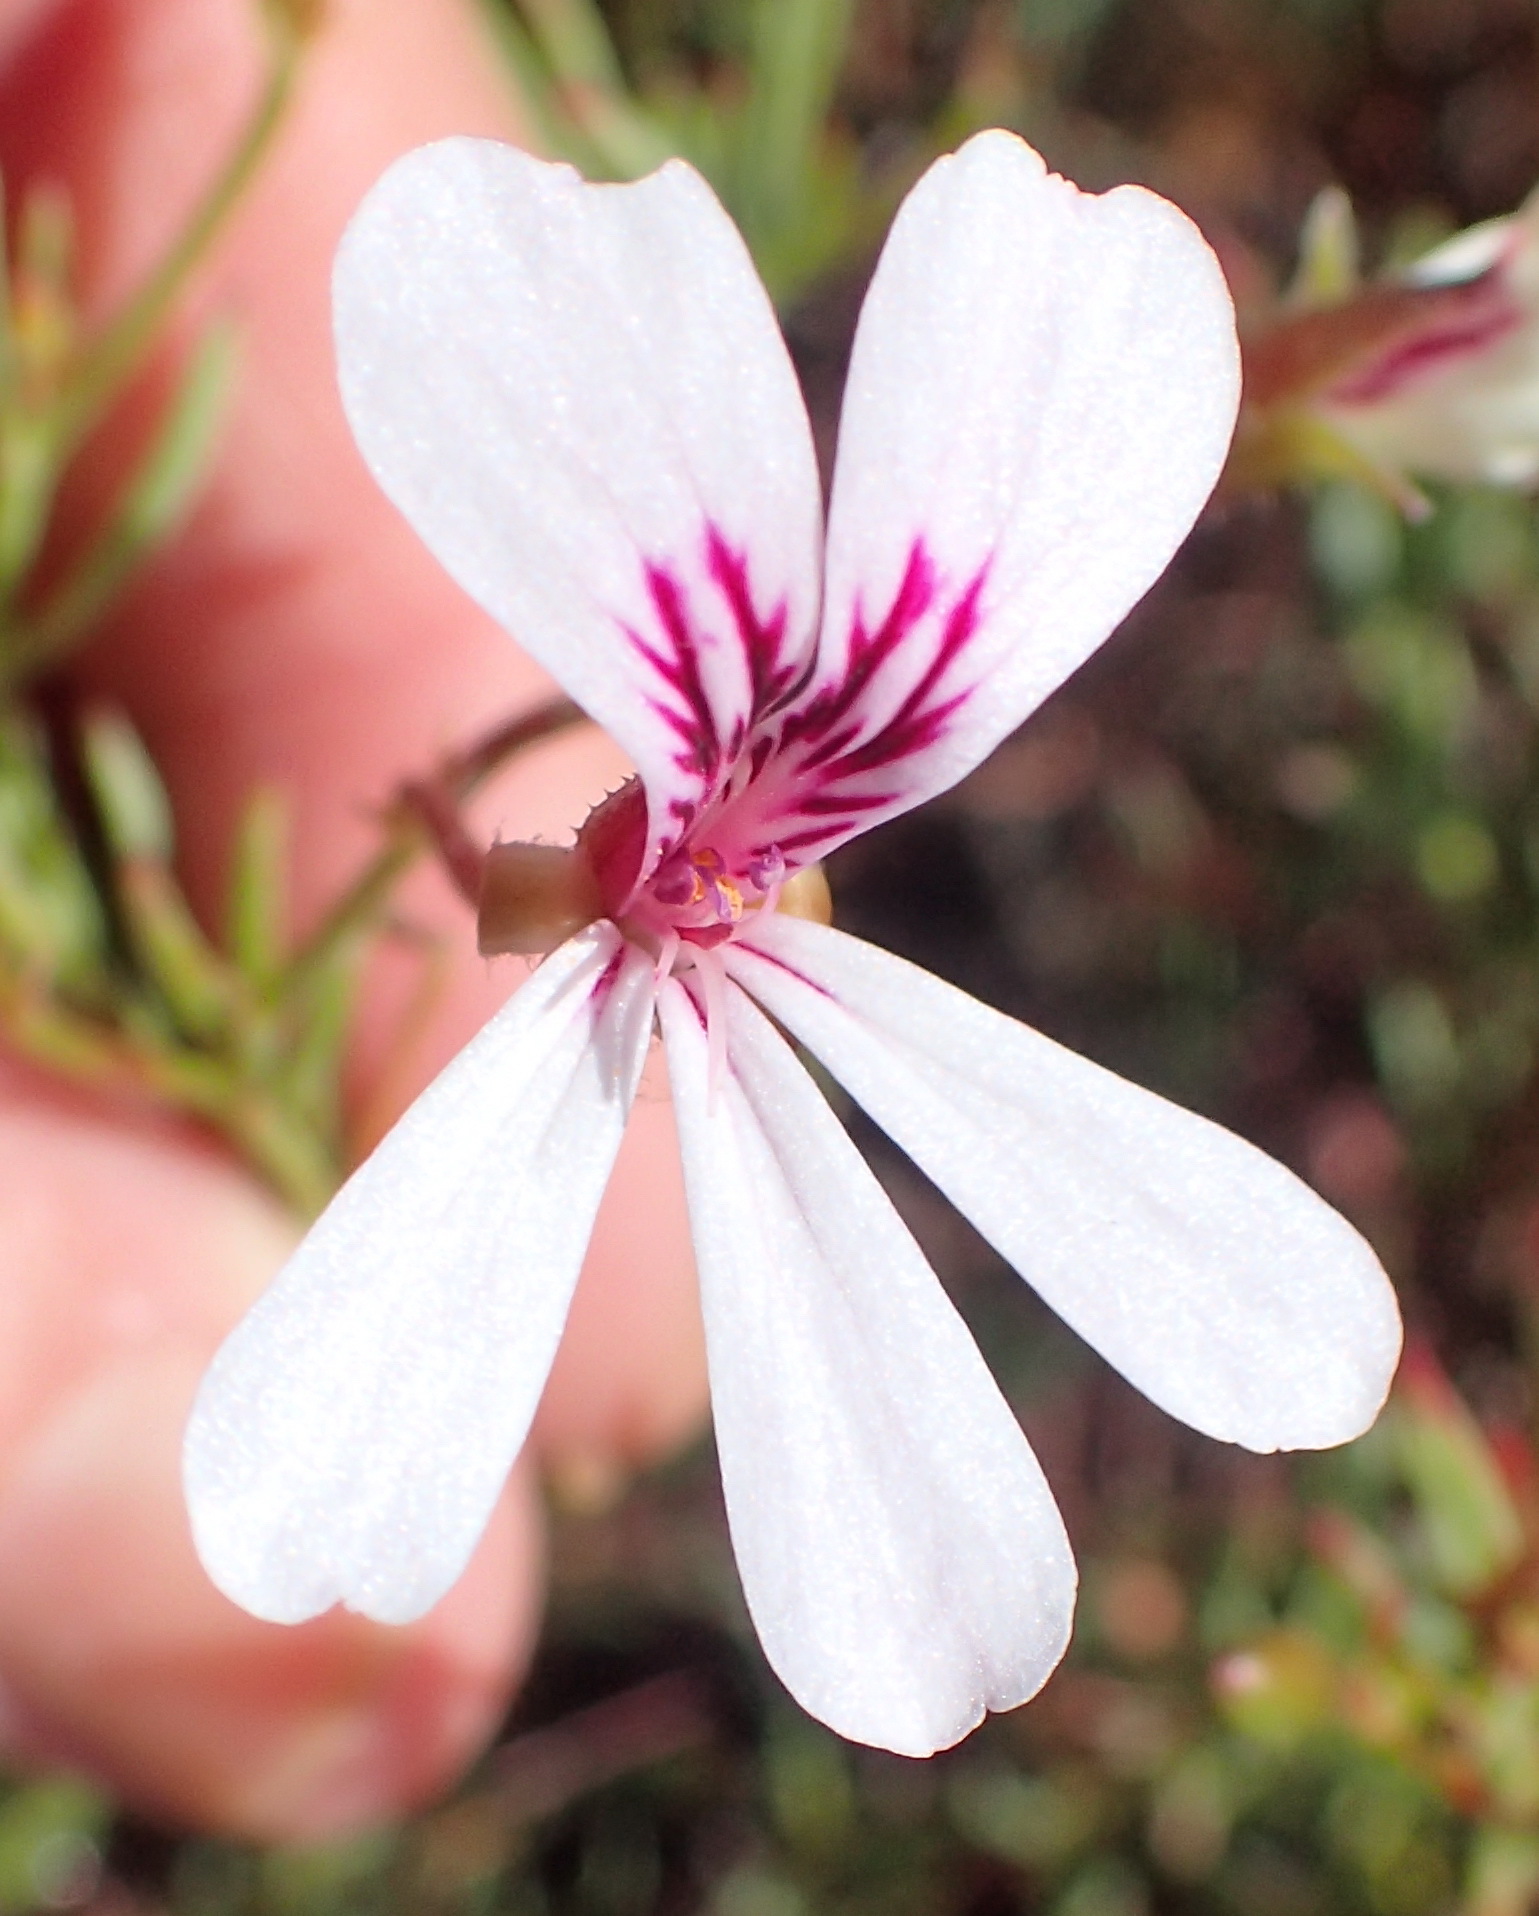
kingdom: Plantae
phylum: Tracheophyta
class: Magnoliopsida
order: Geraniales
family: Geraniaceae
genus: Pelargonium
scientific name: Pelargonium laevigatum
